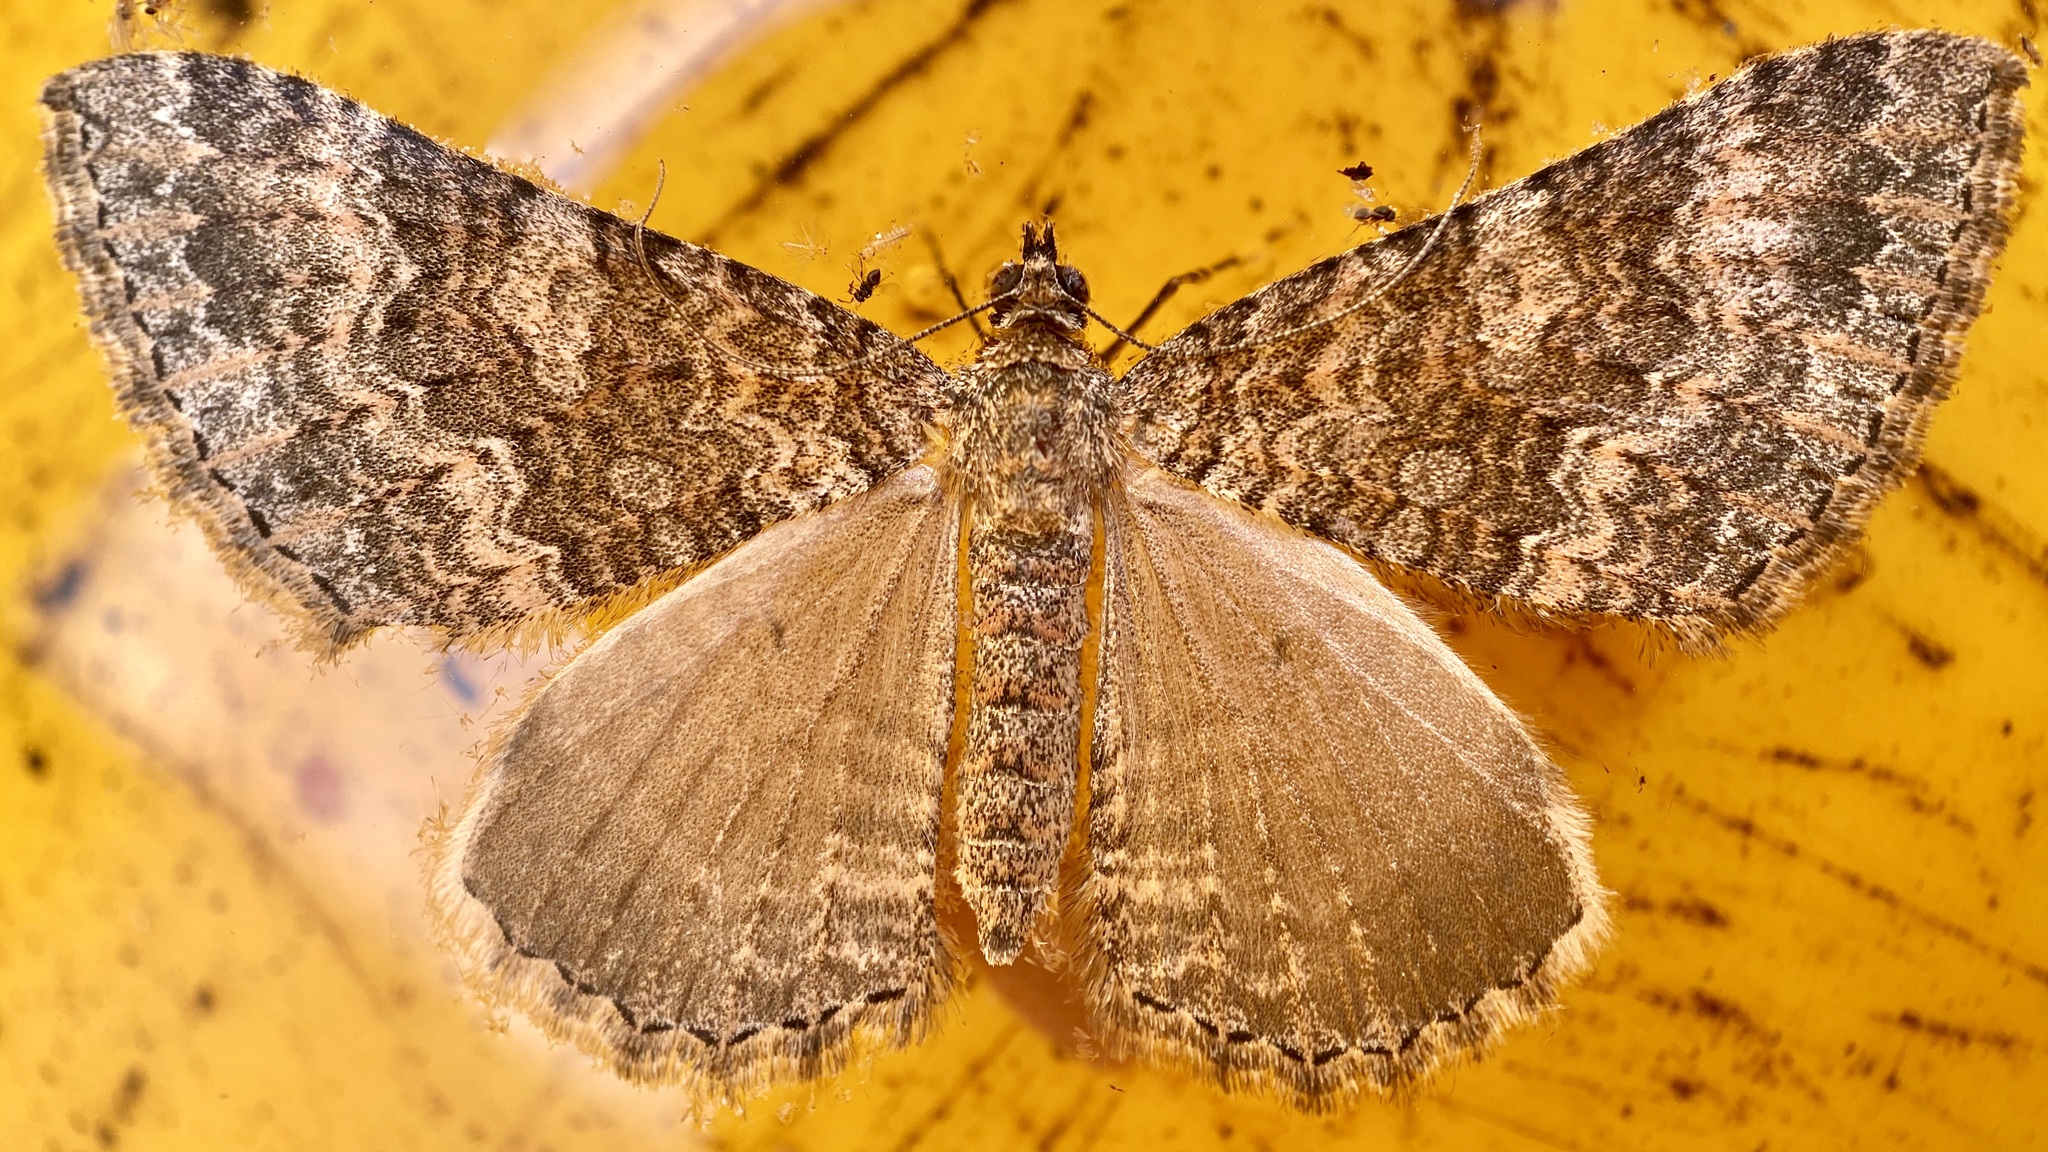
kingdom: Animalia
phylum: Arthropoda
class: Insecta
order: Lepidoptera
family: Geometridae
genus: Archirhoe
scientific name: Archirhoe neomexicana
